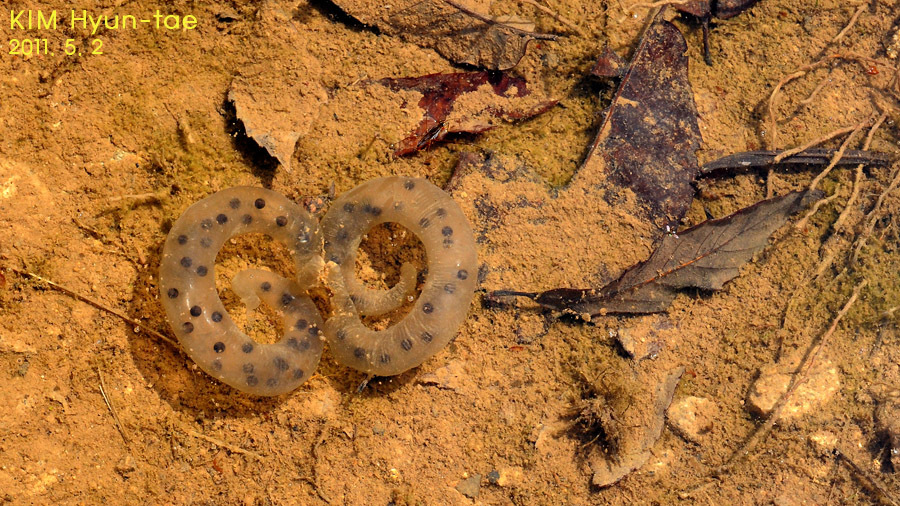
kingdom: Animalia
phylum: Chordata
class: Amphibia
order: Caudata
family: Hynobiidae
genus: Hynobius
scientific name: Hynobius leechii
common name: Gensan salamander
